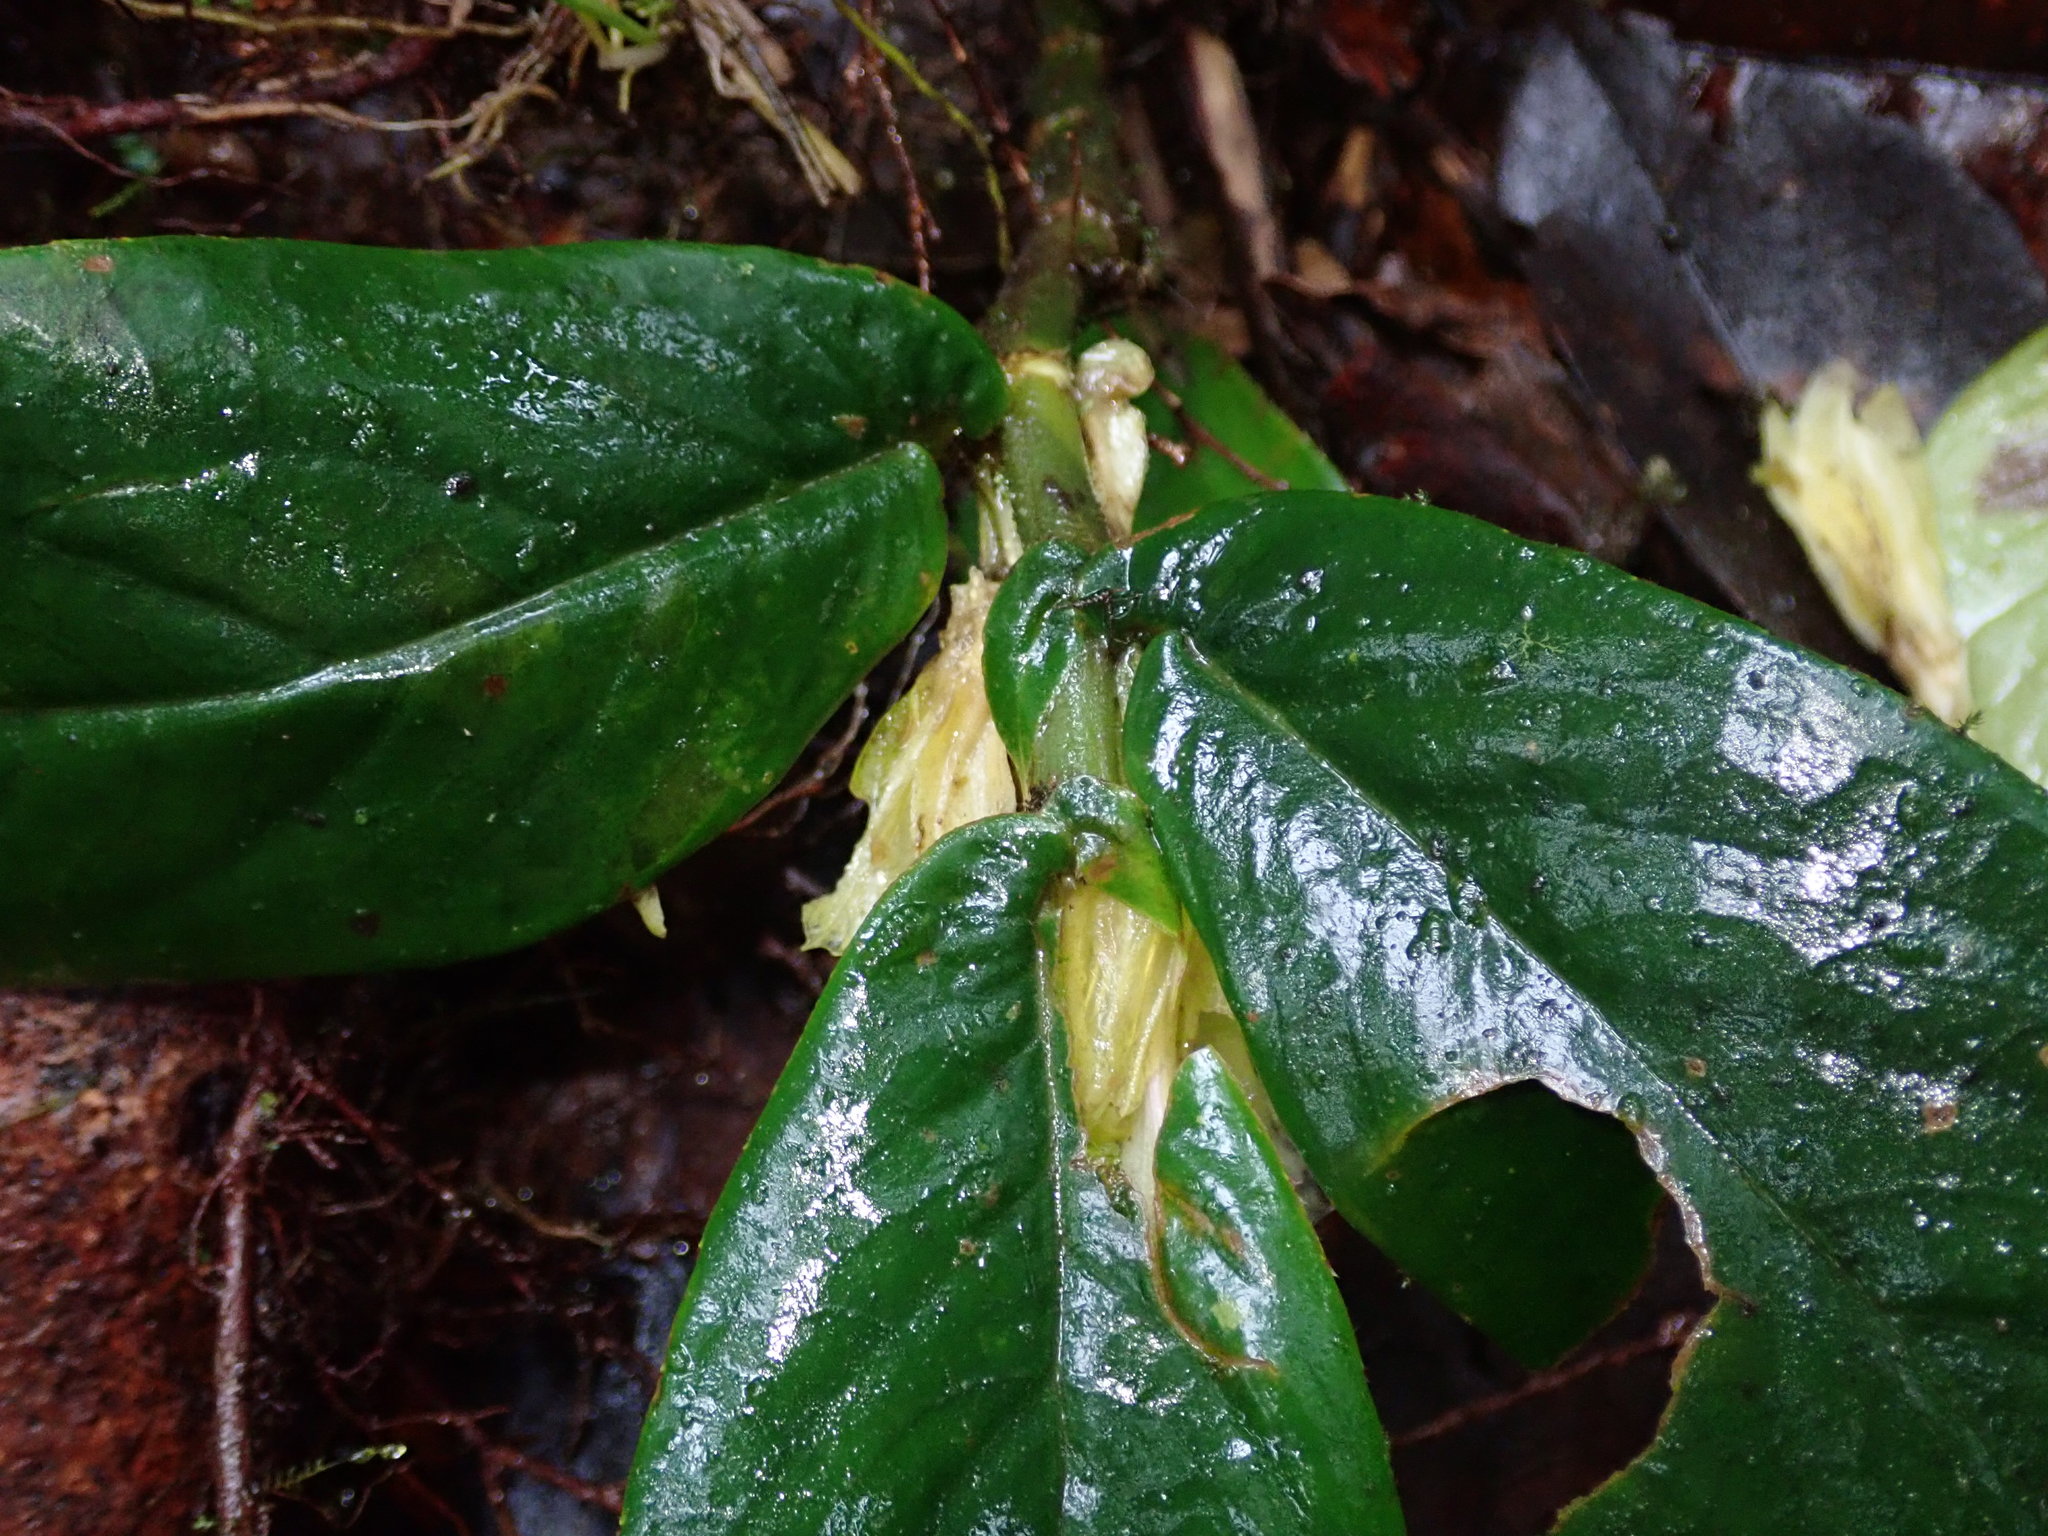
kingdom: Plantae
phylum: Tracheophyta
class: Magnoliopsida
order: Lamiales
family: Gesneriaceae
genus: Columnea
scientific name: Columnea picta
